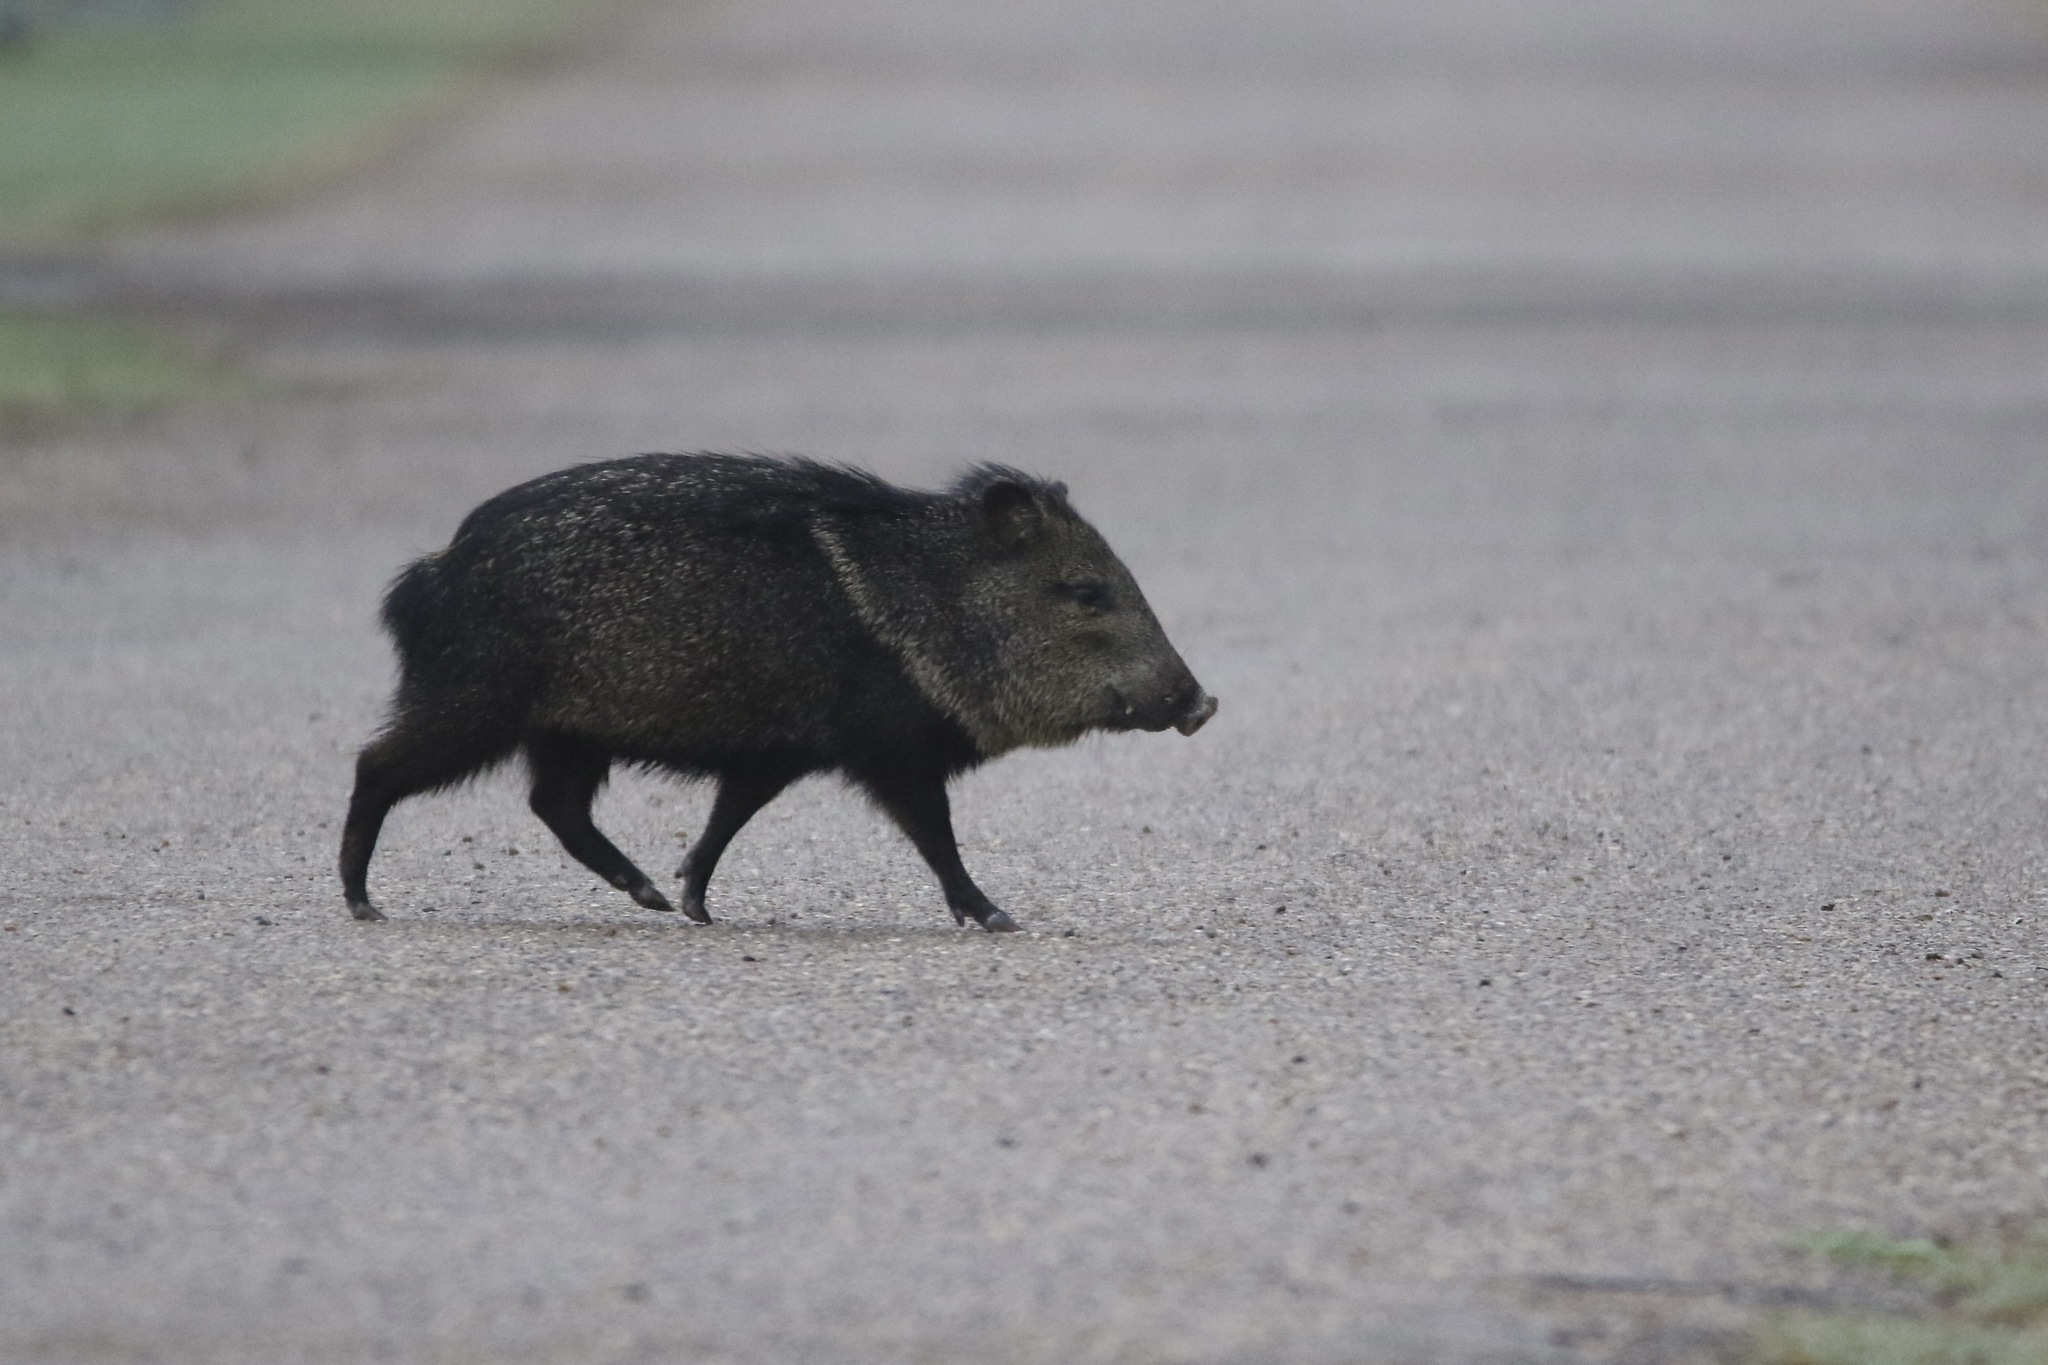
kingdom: Animalia
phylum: Chordata
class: Mammalia
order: Artiodactyla
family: Tayassuidae
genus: Pecari
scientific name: Pecari tajacu
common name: Collared peccary
